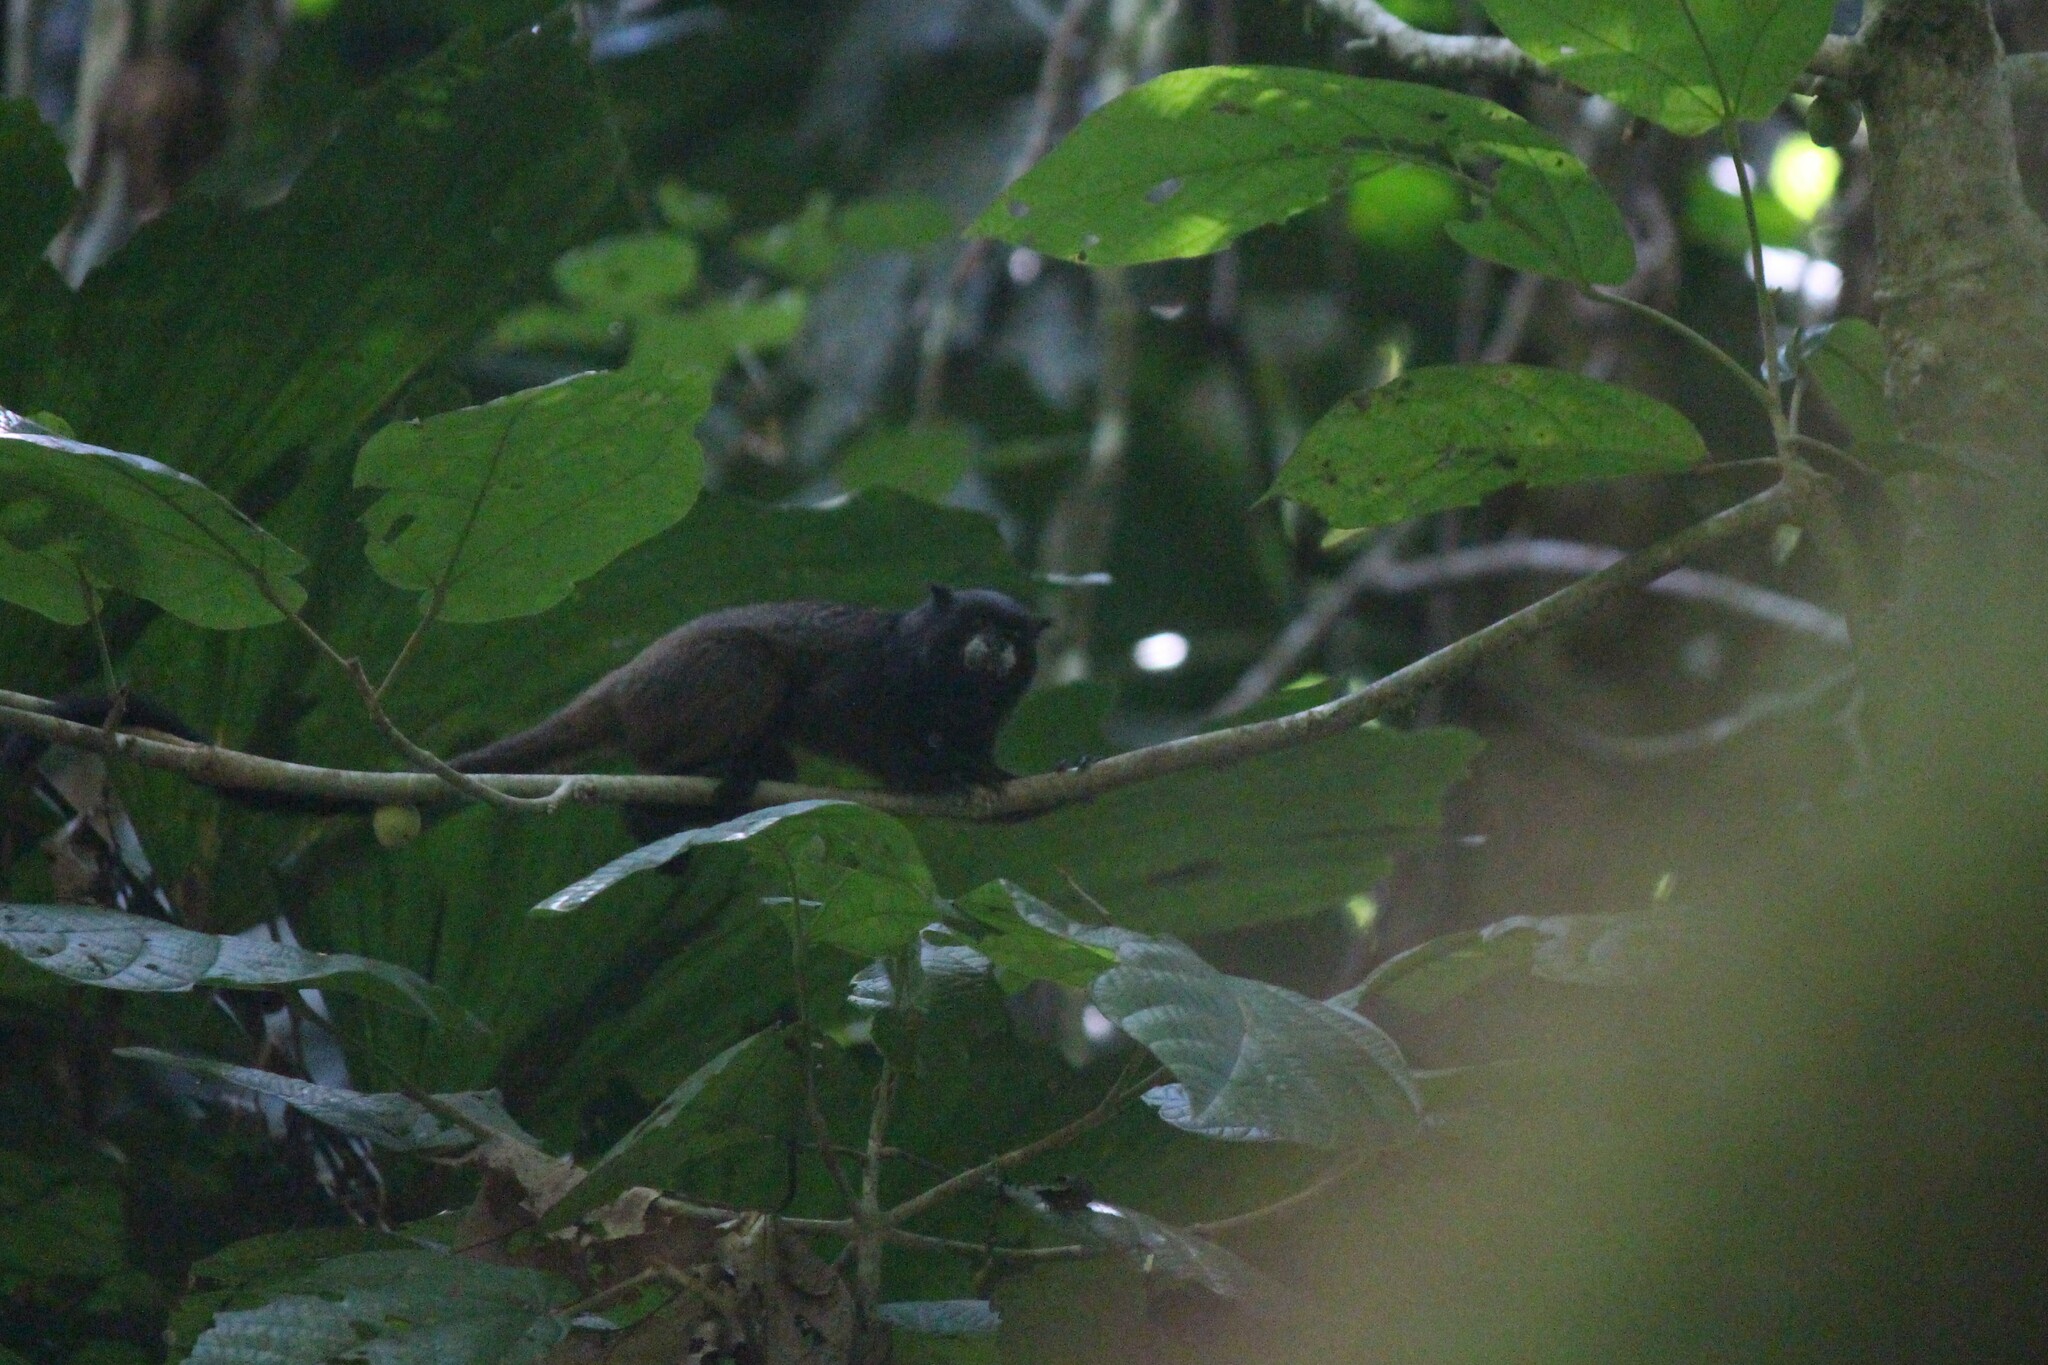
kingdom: Animalia
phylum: Chordata
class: Mammalia
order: Primates
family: Callitrichidae
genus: Leontocebus
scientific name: Leontocebus nigricollis
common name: Black-mantled tamarin
